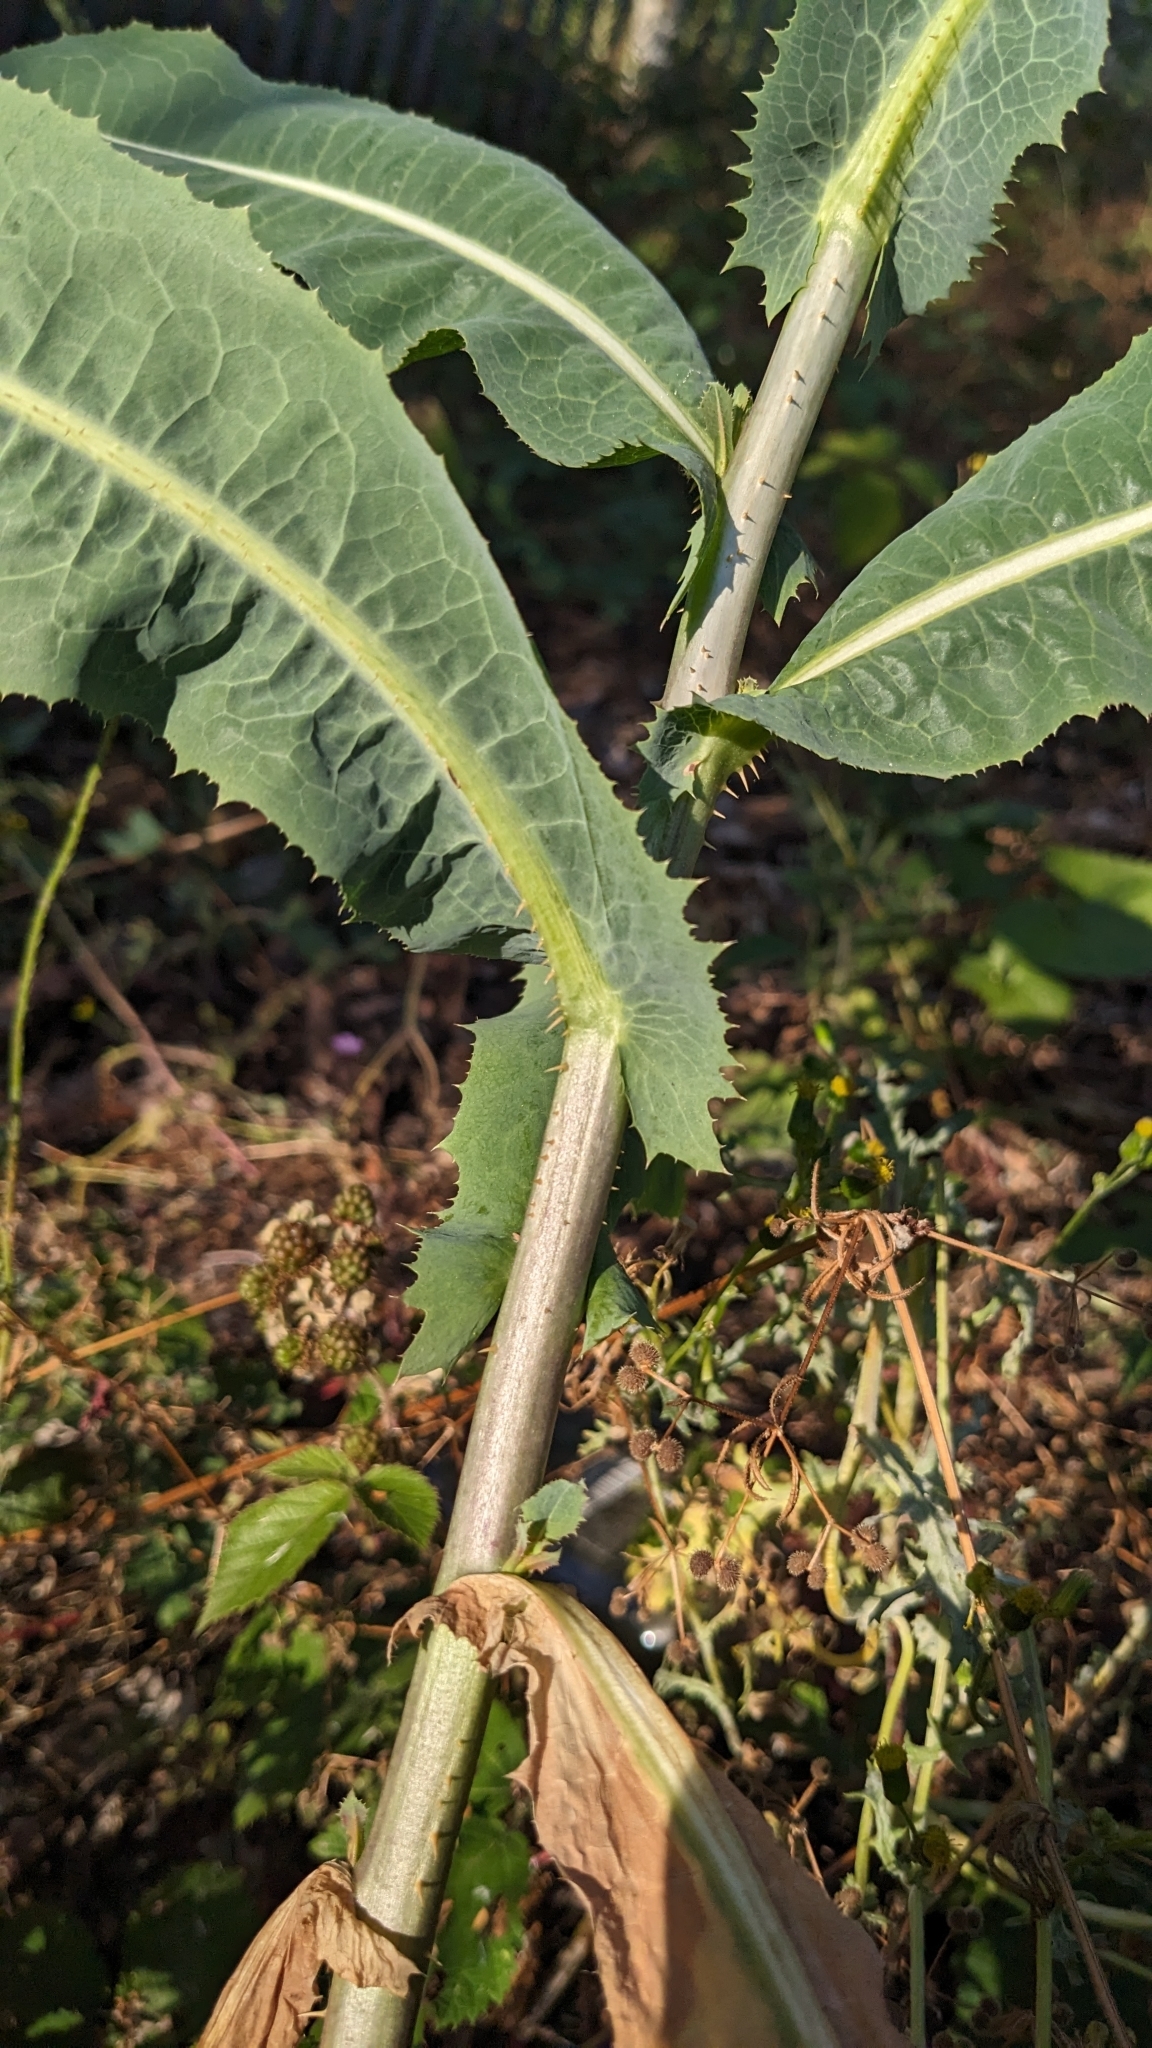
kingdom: Plantae
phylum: Tracheophyta
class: Magnoliopsida
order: Asterales
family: Asteraceae
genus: Lactuca
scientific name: Lactuca serriola
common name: Prickly lettuce
